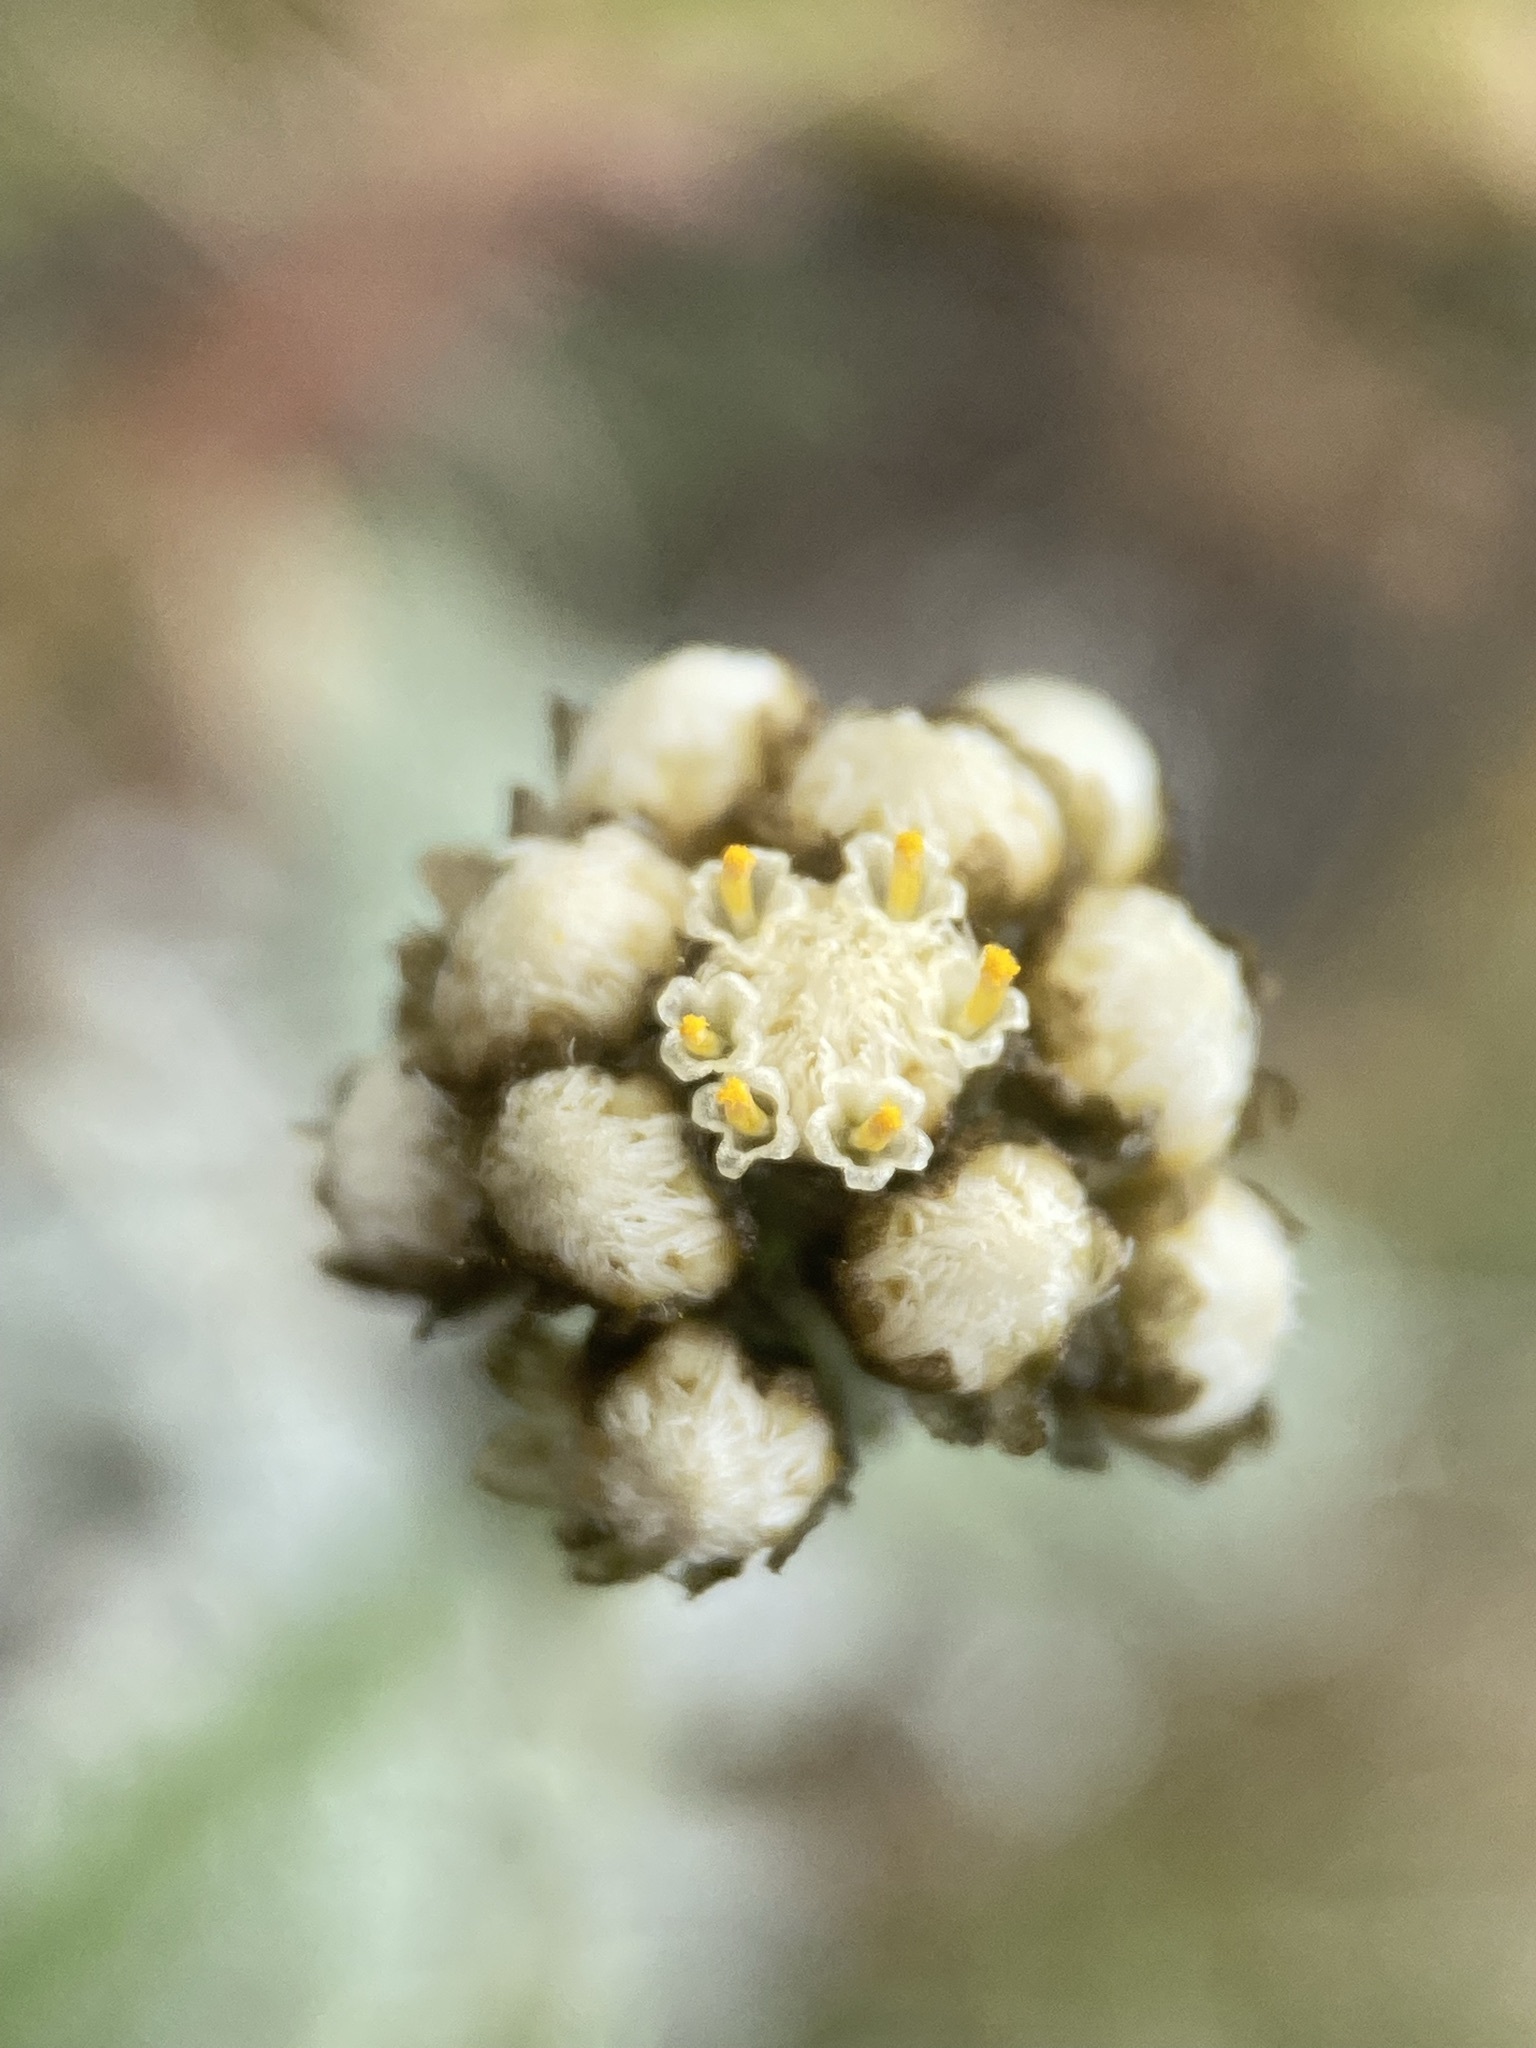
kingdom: Plantae
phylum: Tracheophyta
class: Magnoliopsida
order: Asterales
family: Asteraceae
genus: Antennaria
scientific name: Antennaria media
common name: Rocky mountain pussytoes
